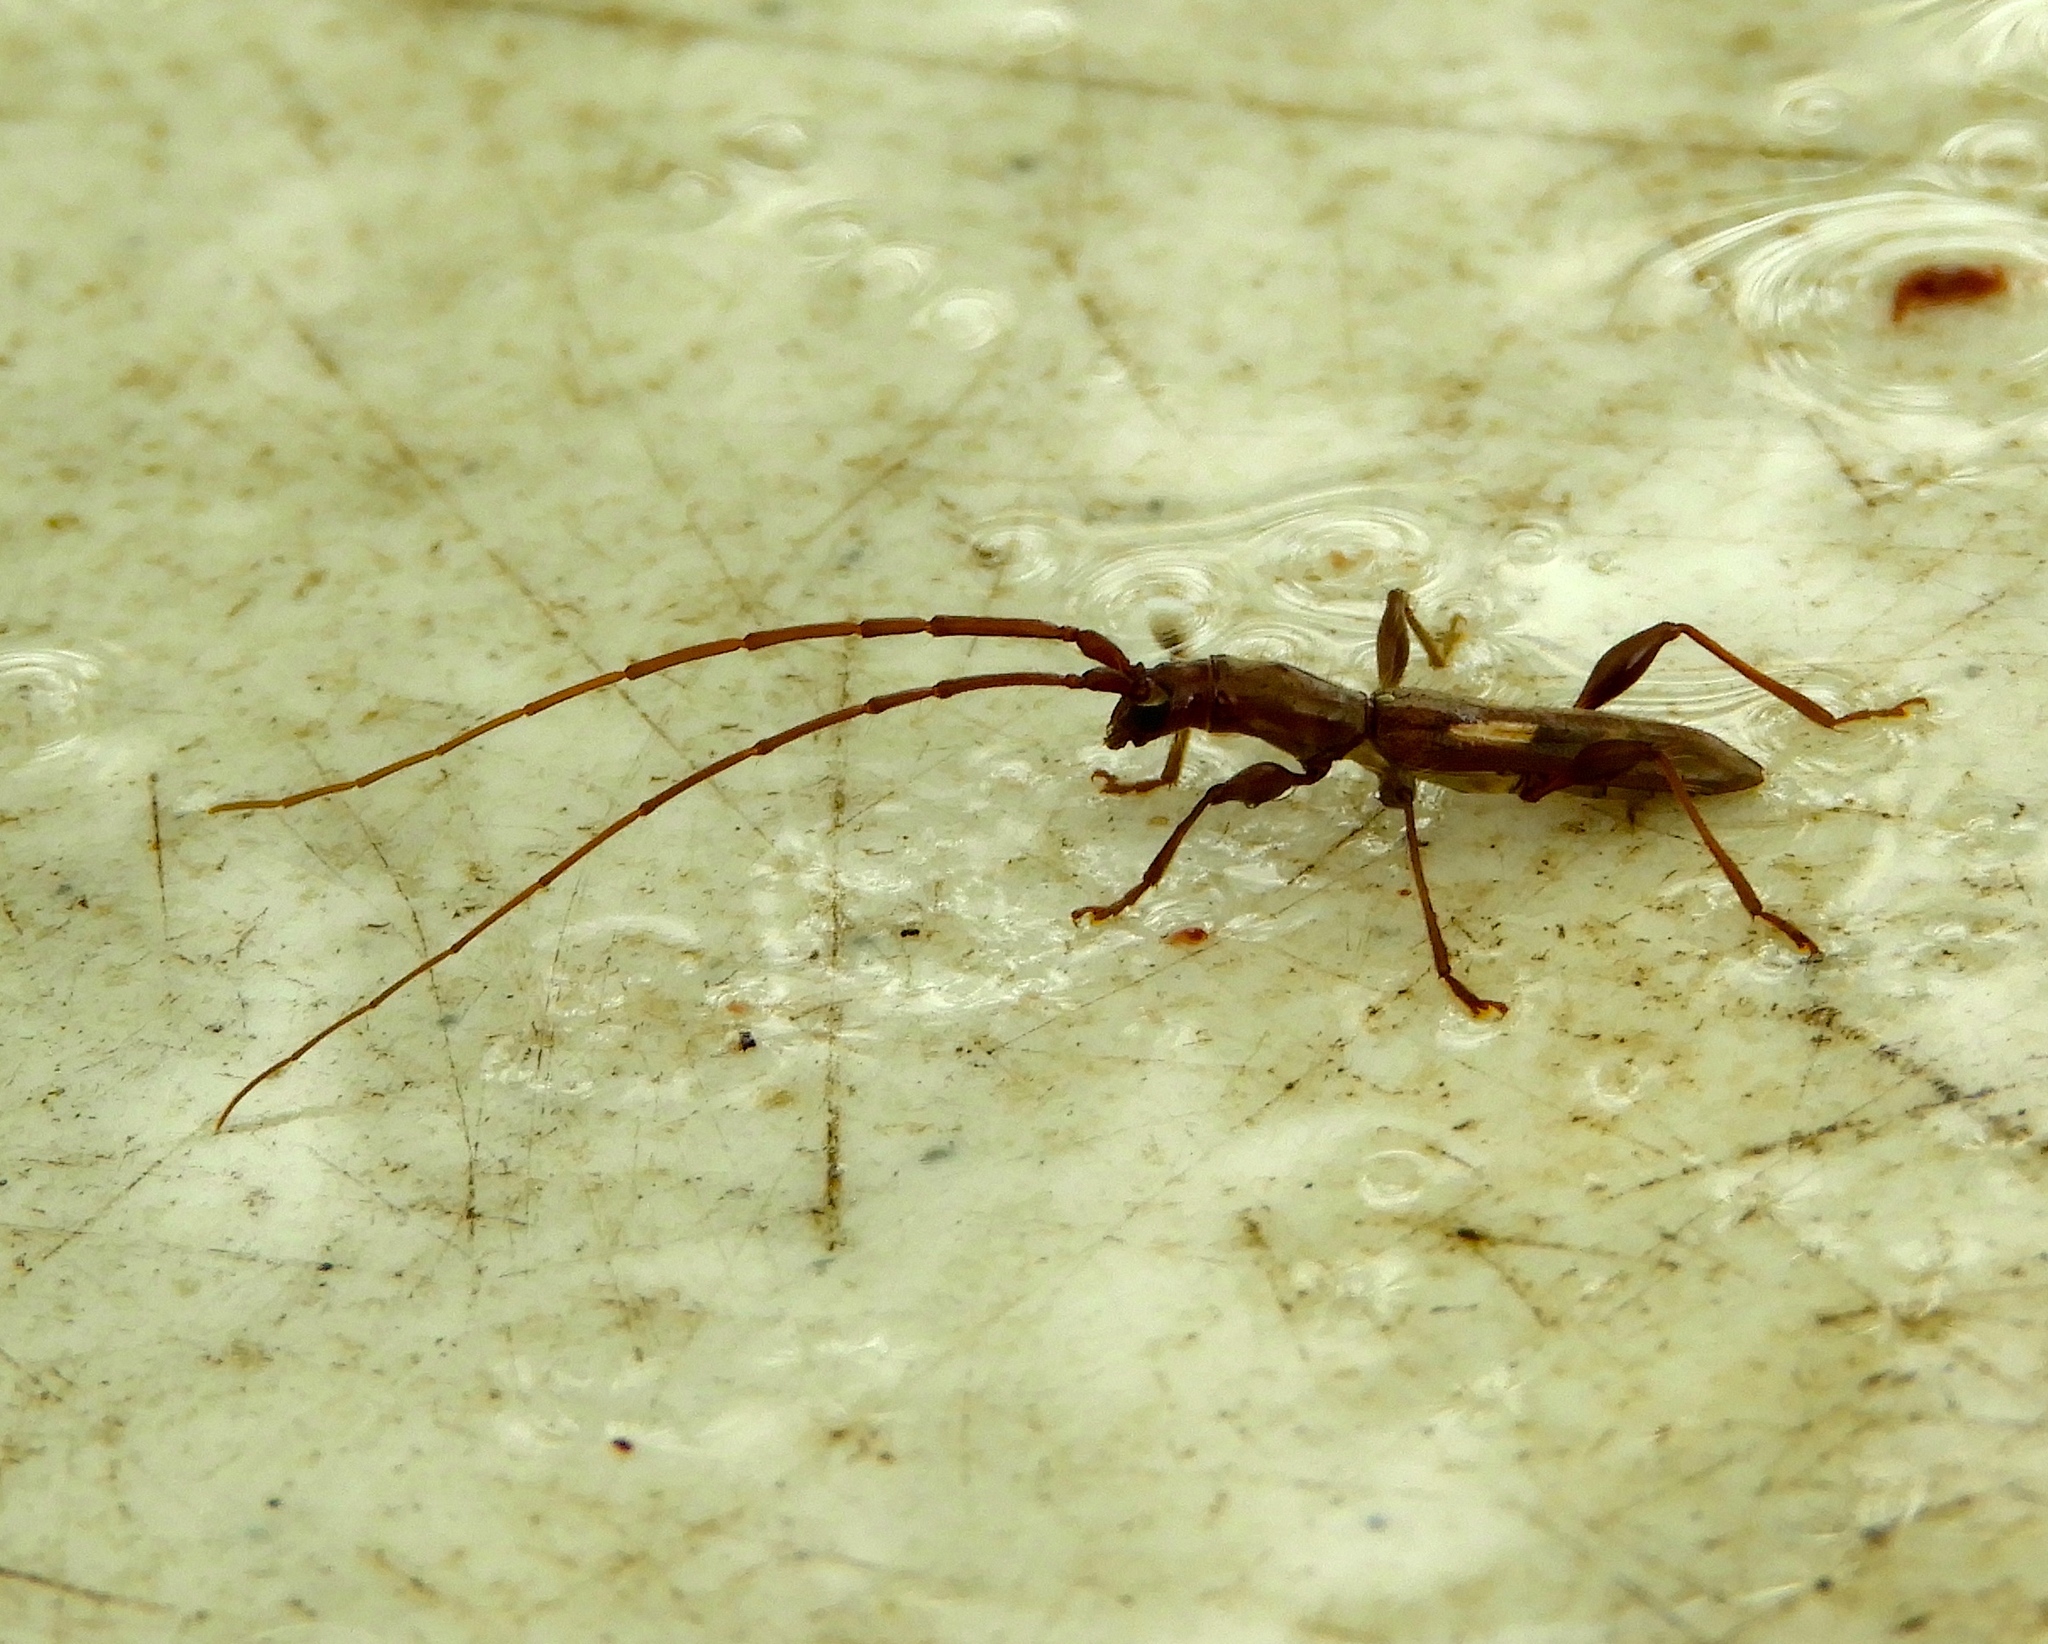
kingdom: Animalia
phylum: Arthropoda
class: Insecta
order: Coleoptera
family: Cerambycidae
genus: Neocompsa
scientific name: Neocompsa agnosta
